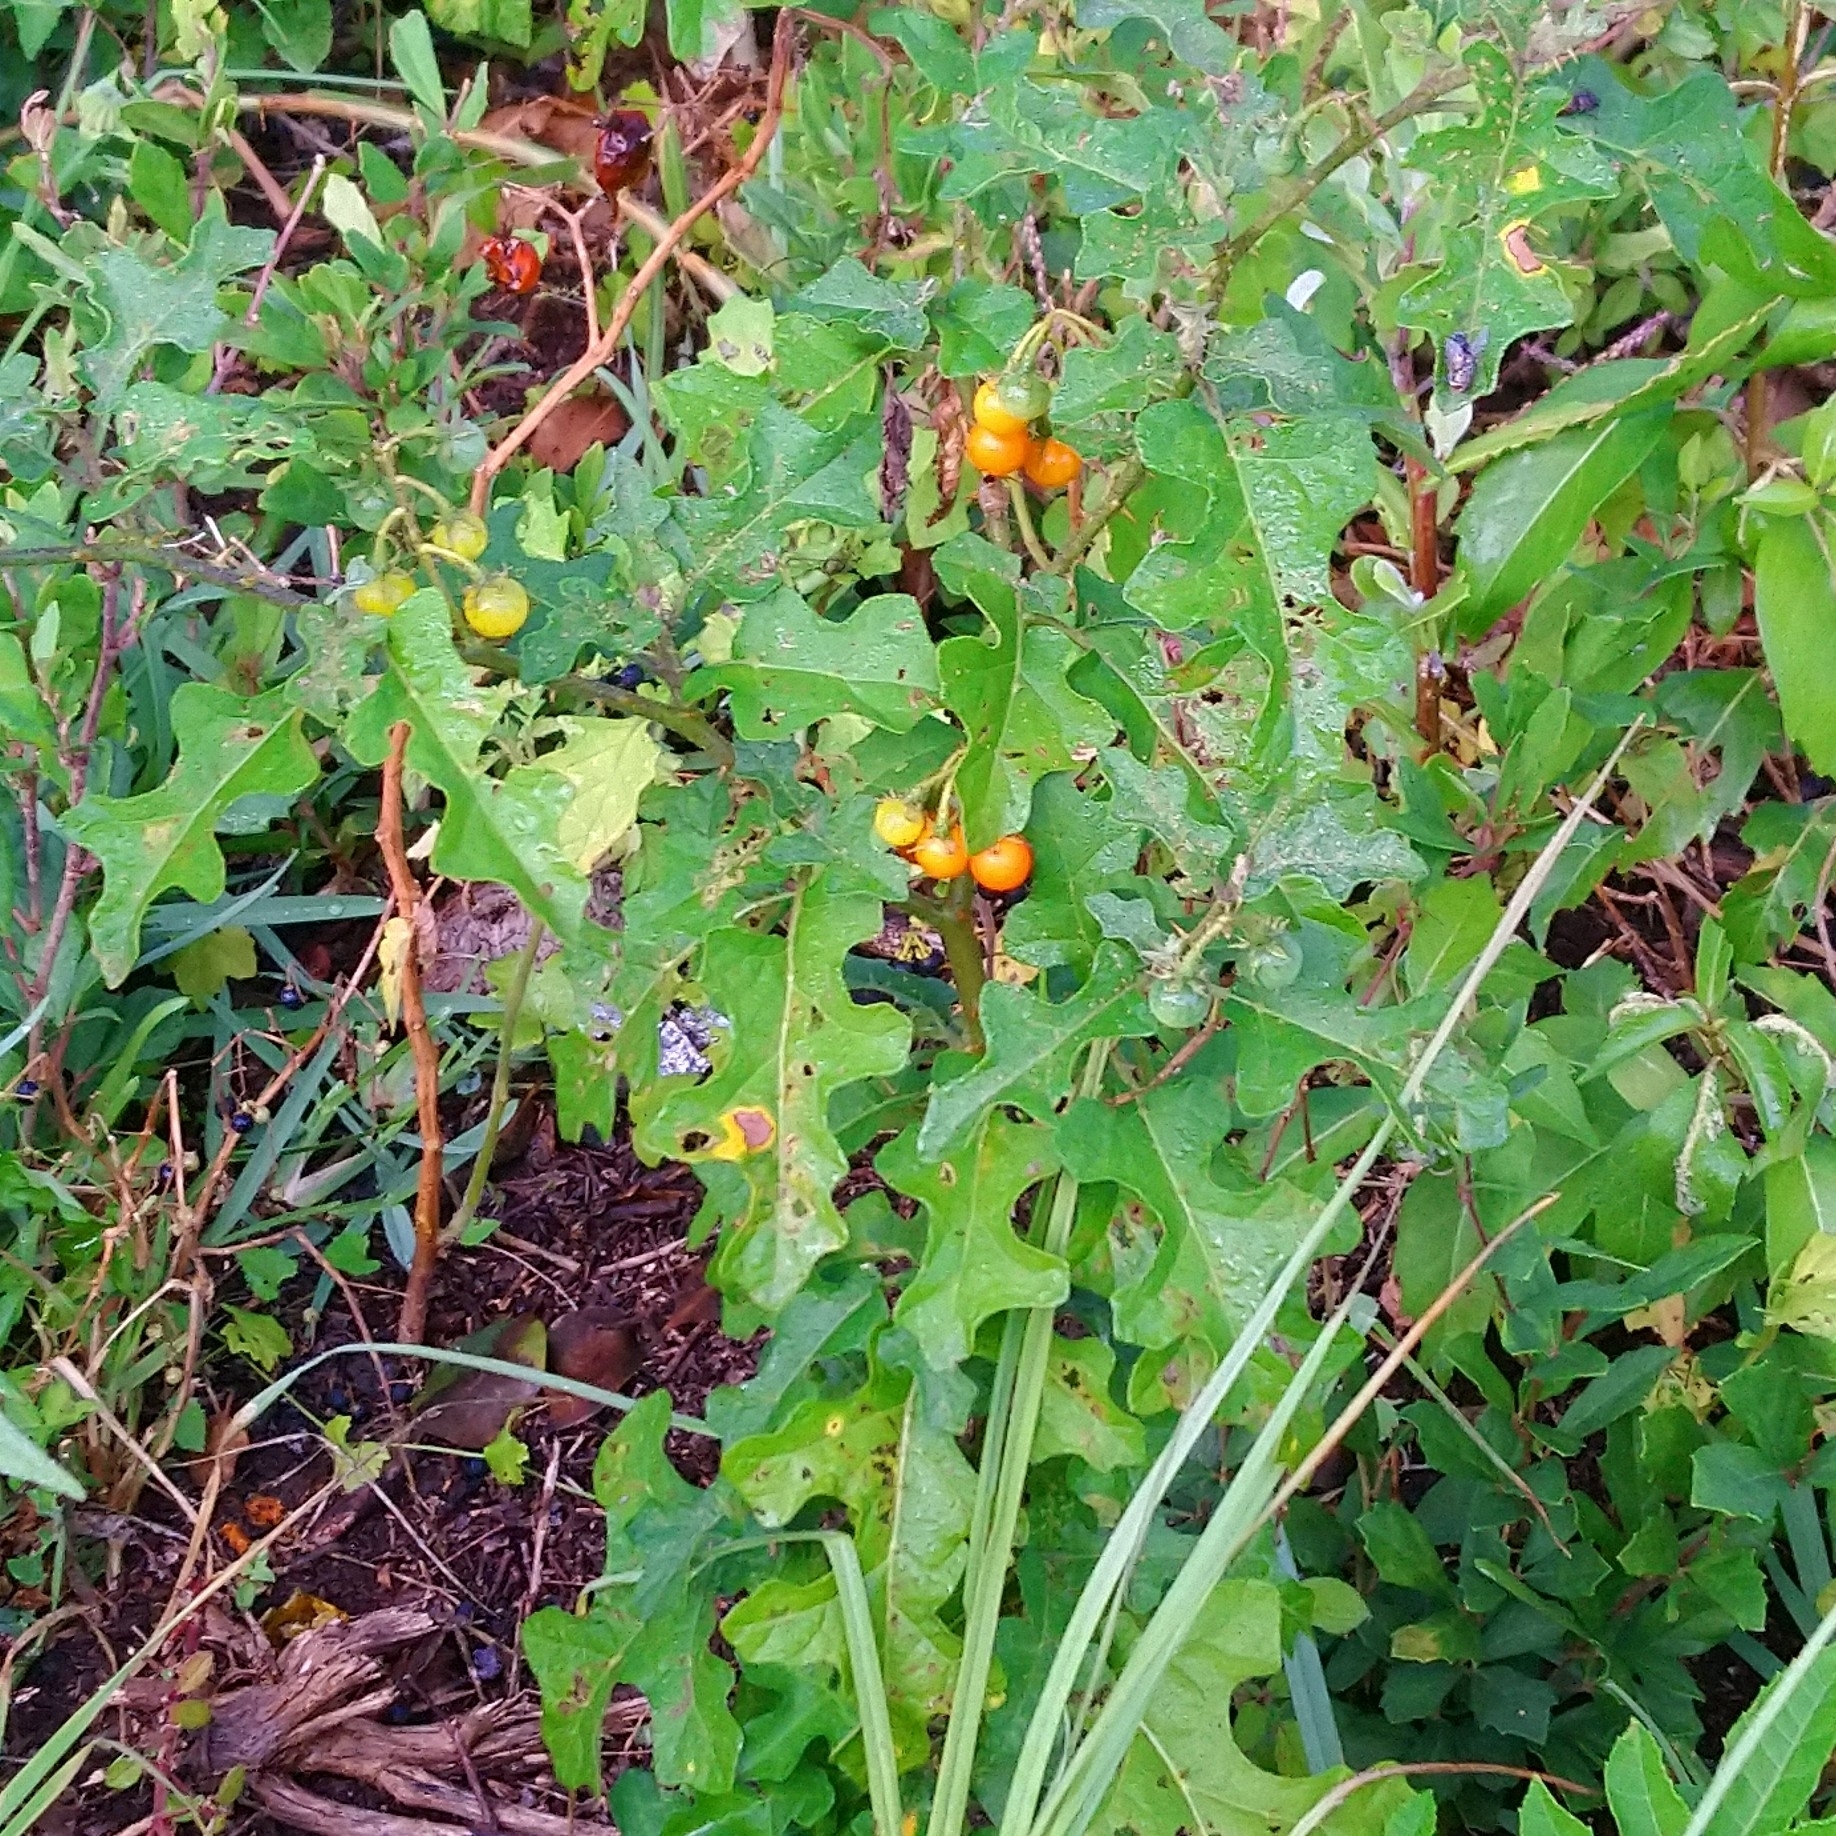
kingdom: Plantae
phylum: Tracheophyta
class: Magnoliopsida
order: Solanales
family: Solanaceae
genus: Solanum
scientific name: Solanum rubetorum
